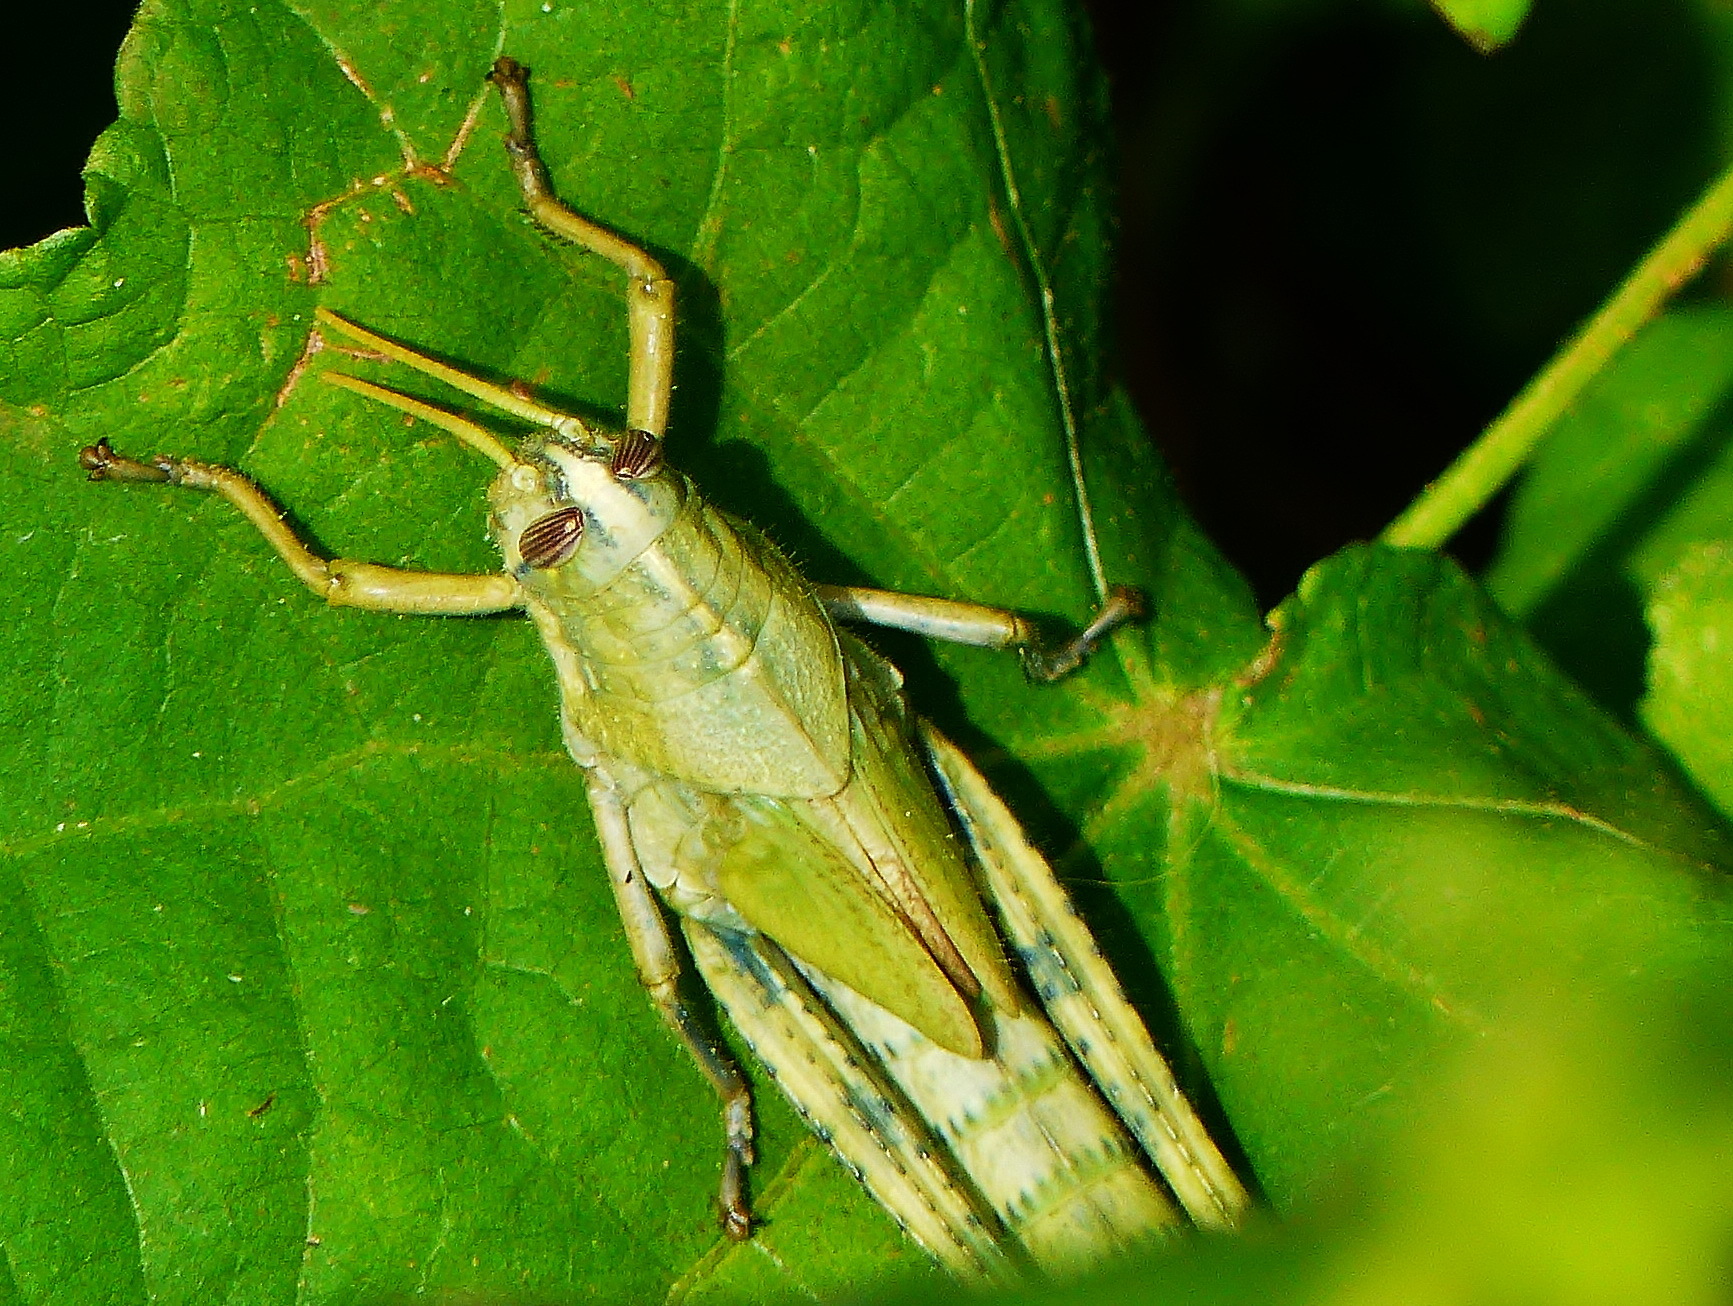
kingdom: Animalia
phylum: Arthropoda
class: Insecta
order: Orthoptera
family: Acrididae
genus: Schistocerca
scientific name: Schistocerca nitens
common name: Vagrant grasshopper
